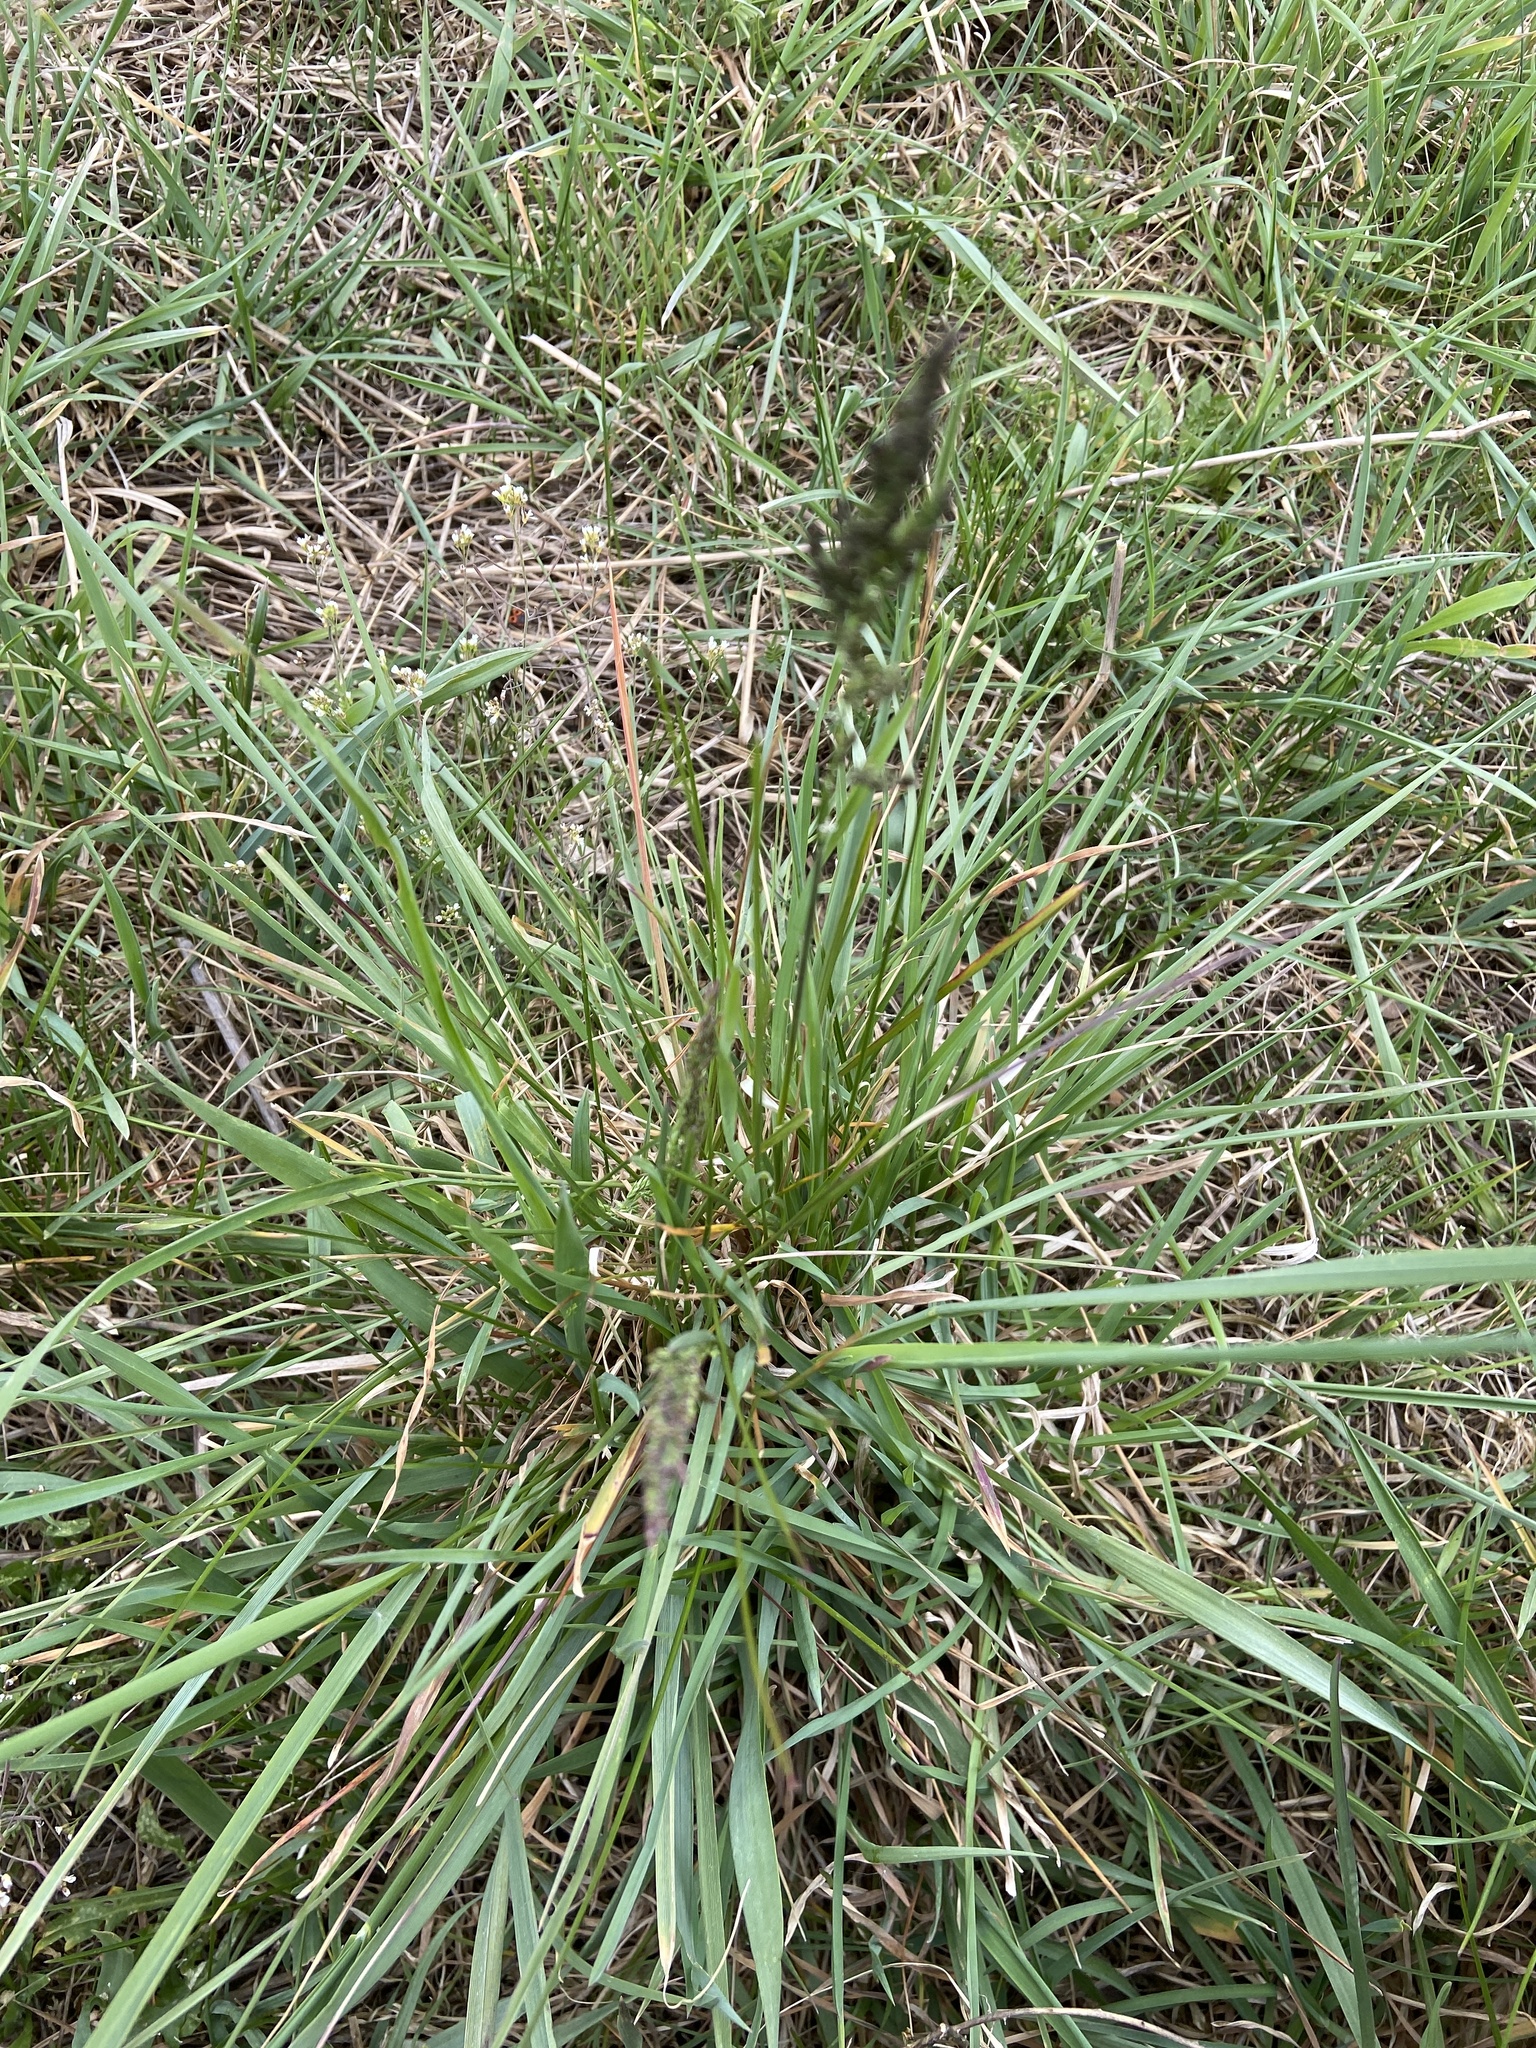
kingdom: Plantae
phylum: Tracheophyta
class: Liliopsida
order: Poales
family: Poaceae
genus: Poa
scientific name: Poa pratensis
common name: Kentucky bluegrass
